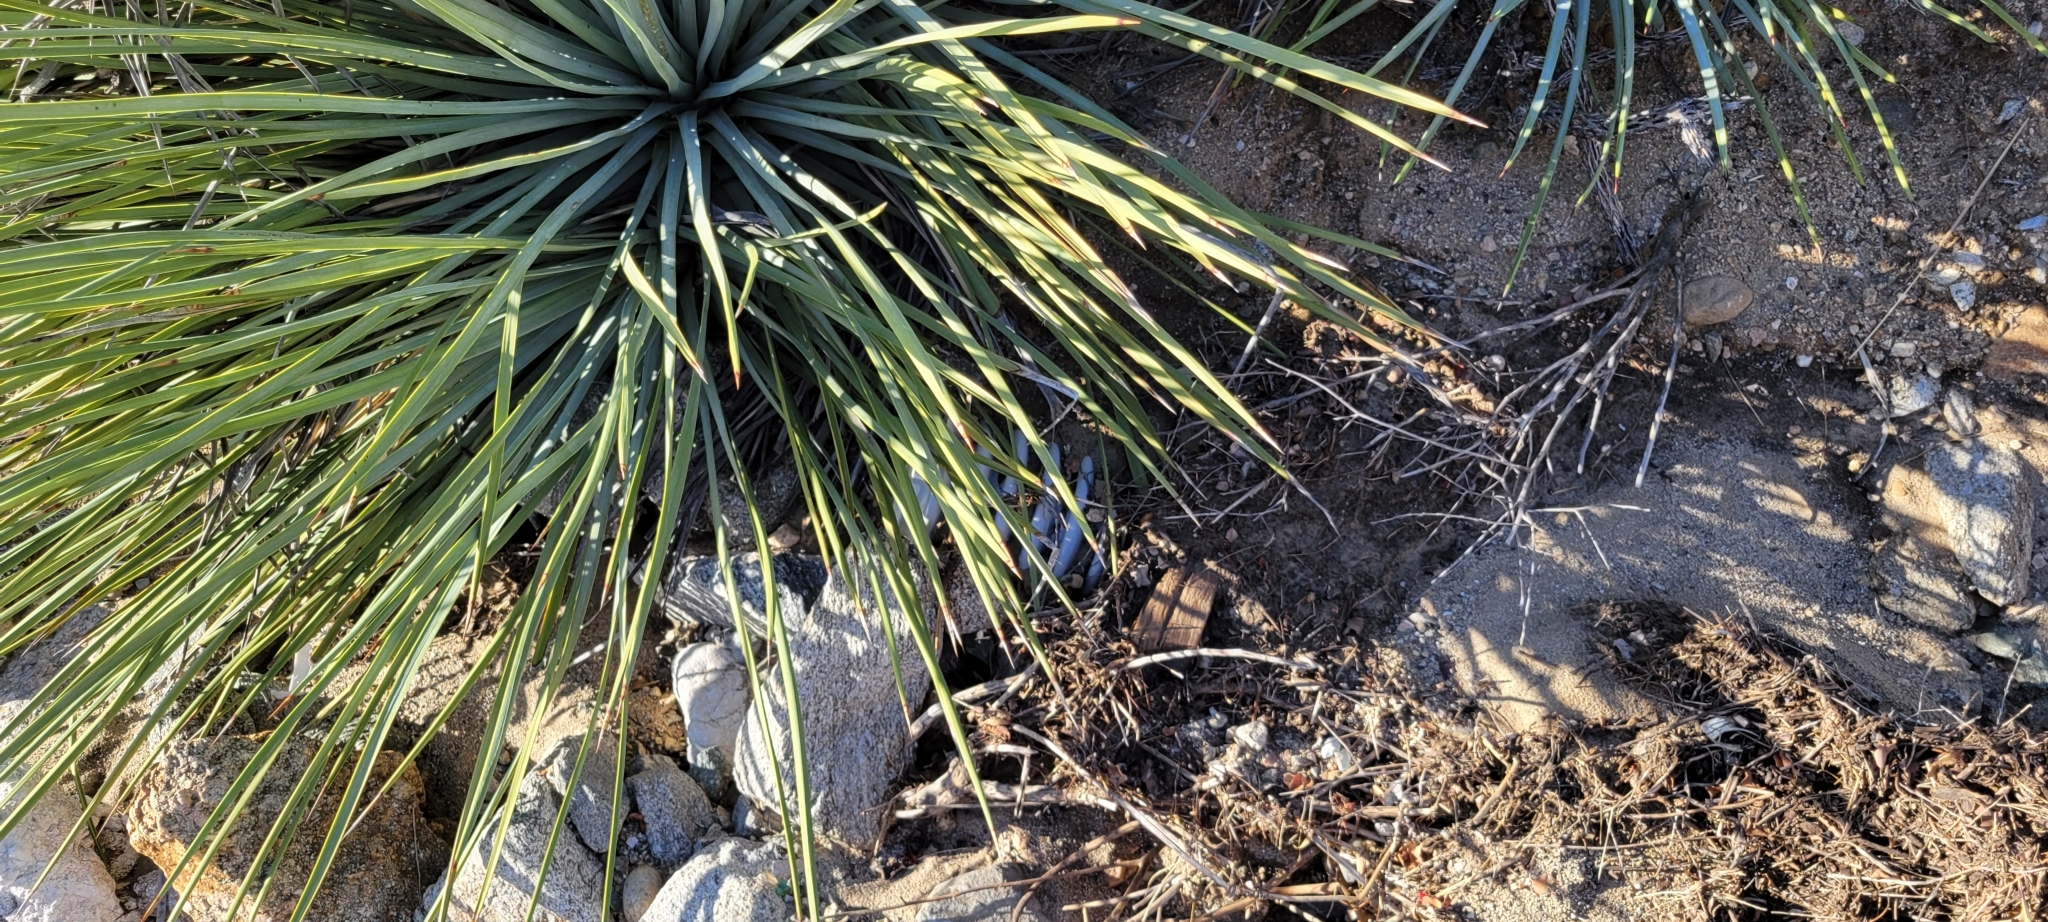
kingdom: Plantae
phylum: Tracheophyta
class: Liliopsida
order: Asparagales
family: Asparagaceae
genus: Hesperoyucca
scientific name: Hesperoyucca whipplei
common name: Our lord's-candle
